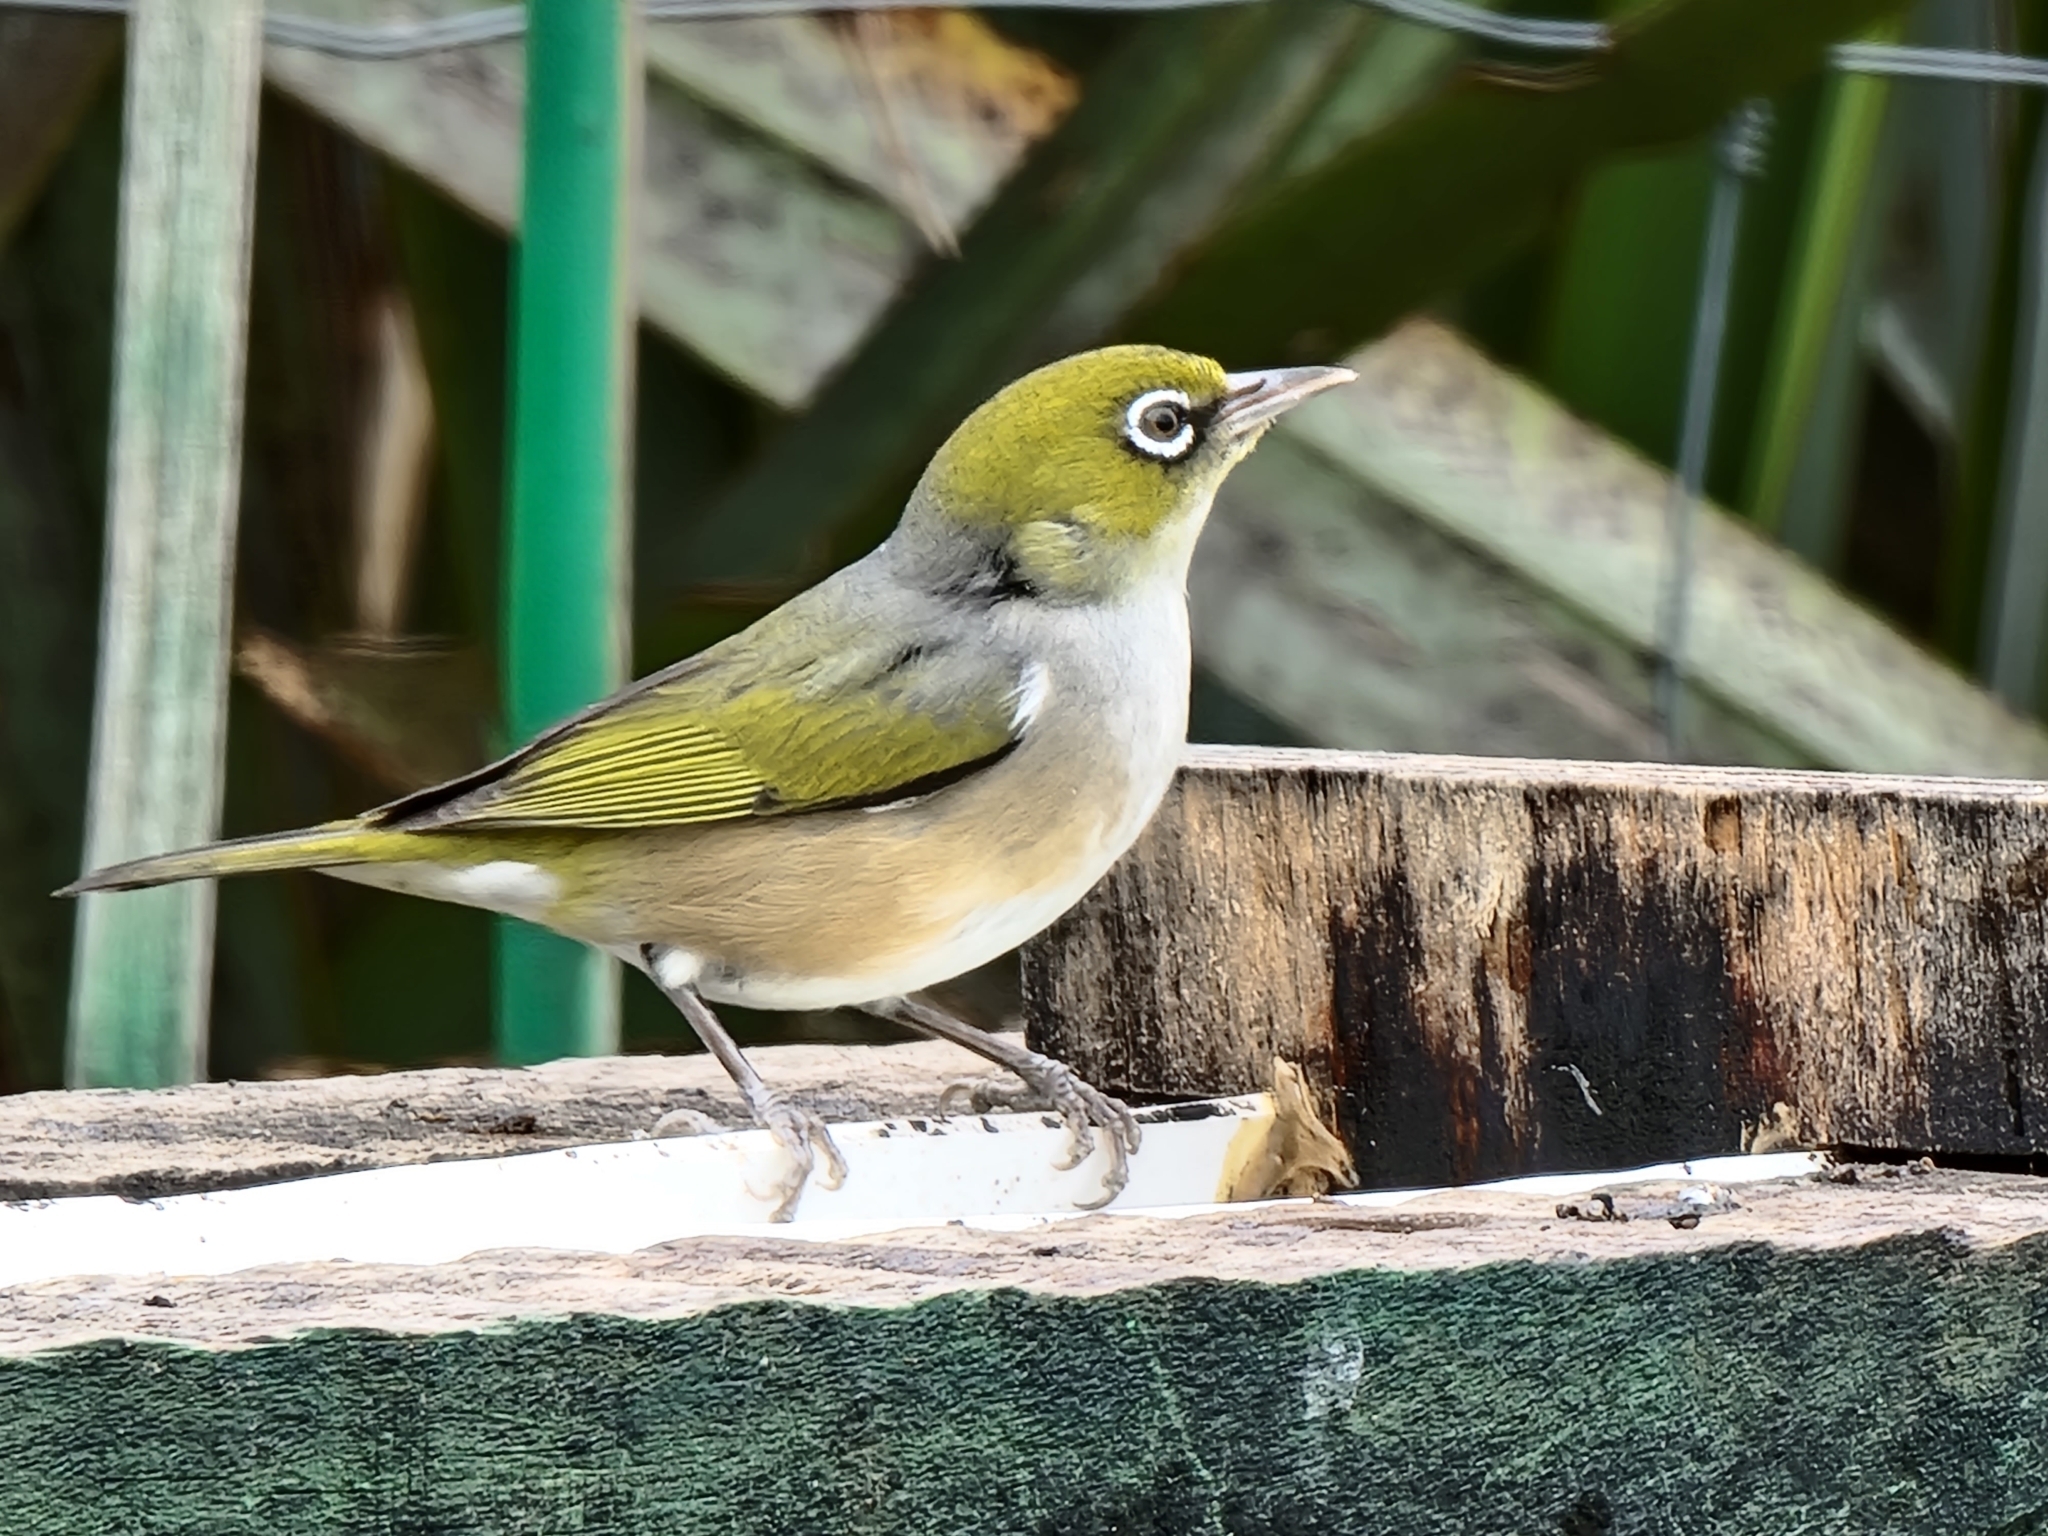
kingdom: Animalia
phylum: Chordata
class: Aves
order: Passeriformes
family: Zosteropidae
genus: Zosterops
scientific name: Zosterops lateralis
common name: Silvereye
